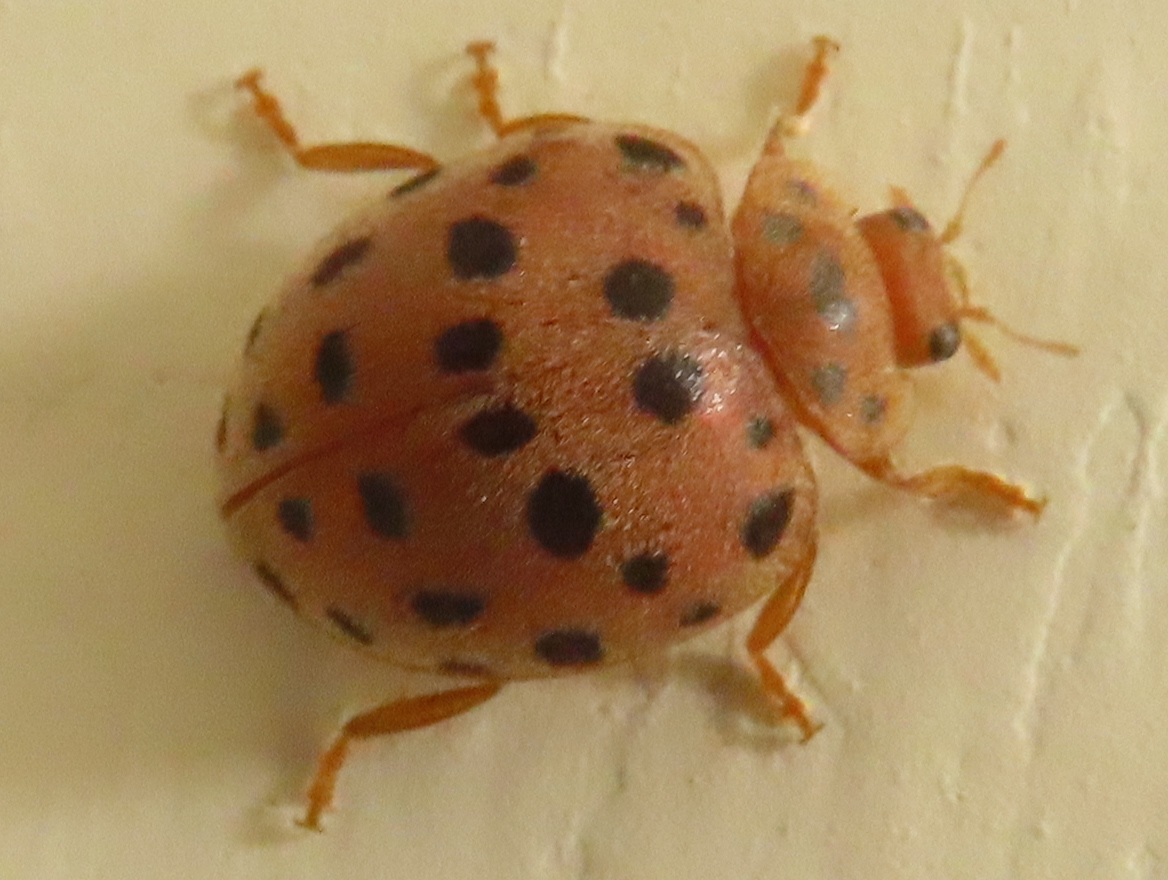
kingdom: Animalia
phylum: Arthropoda
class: Insecta
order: Coleoptera
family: Coccinellidae
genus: Henosepilachna
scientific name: Henosepilachna vigintioctopunctata
